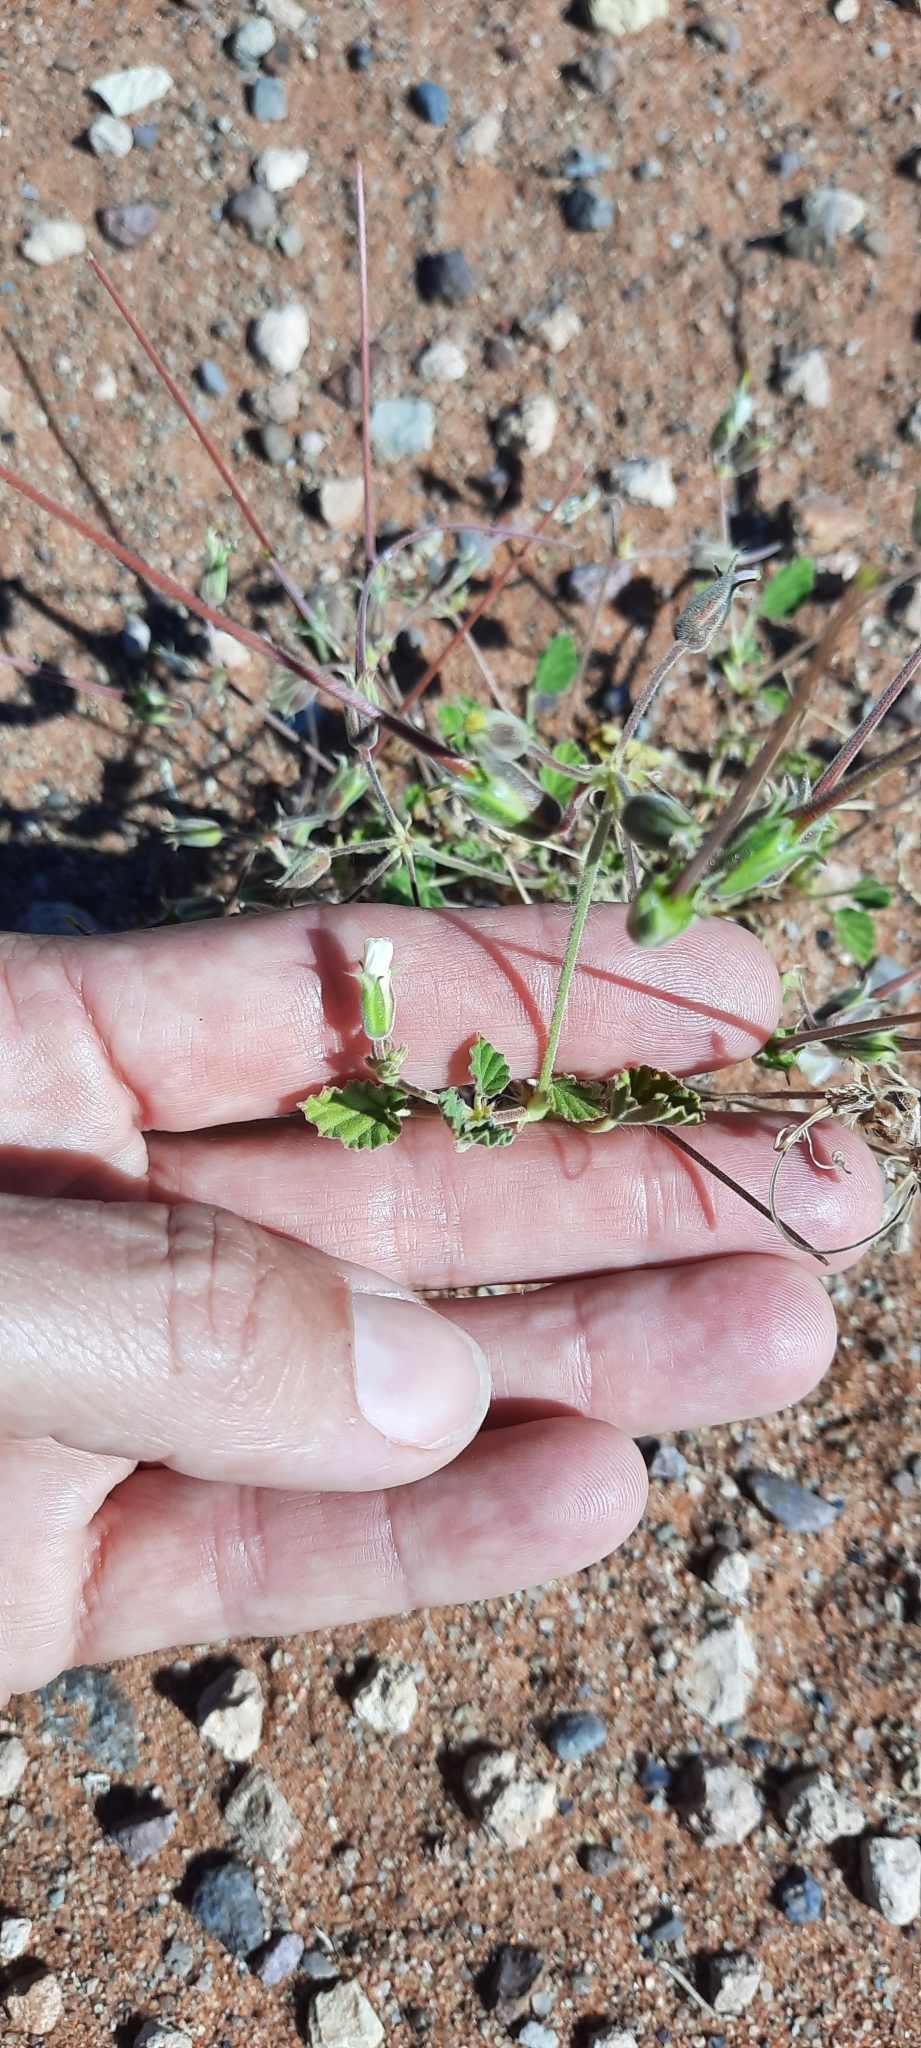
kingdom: Plantae
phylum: Tracheophyta
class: Magnoliopsida
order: Geraniales
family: Geraniaceae
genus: Monsonia
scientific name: Monsonia umbellata
